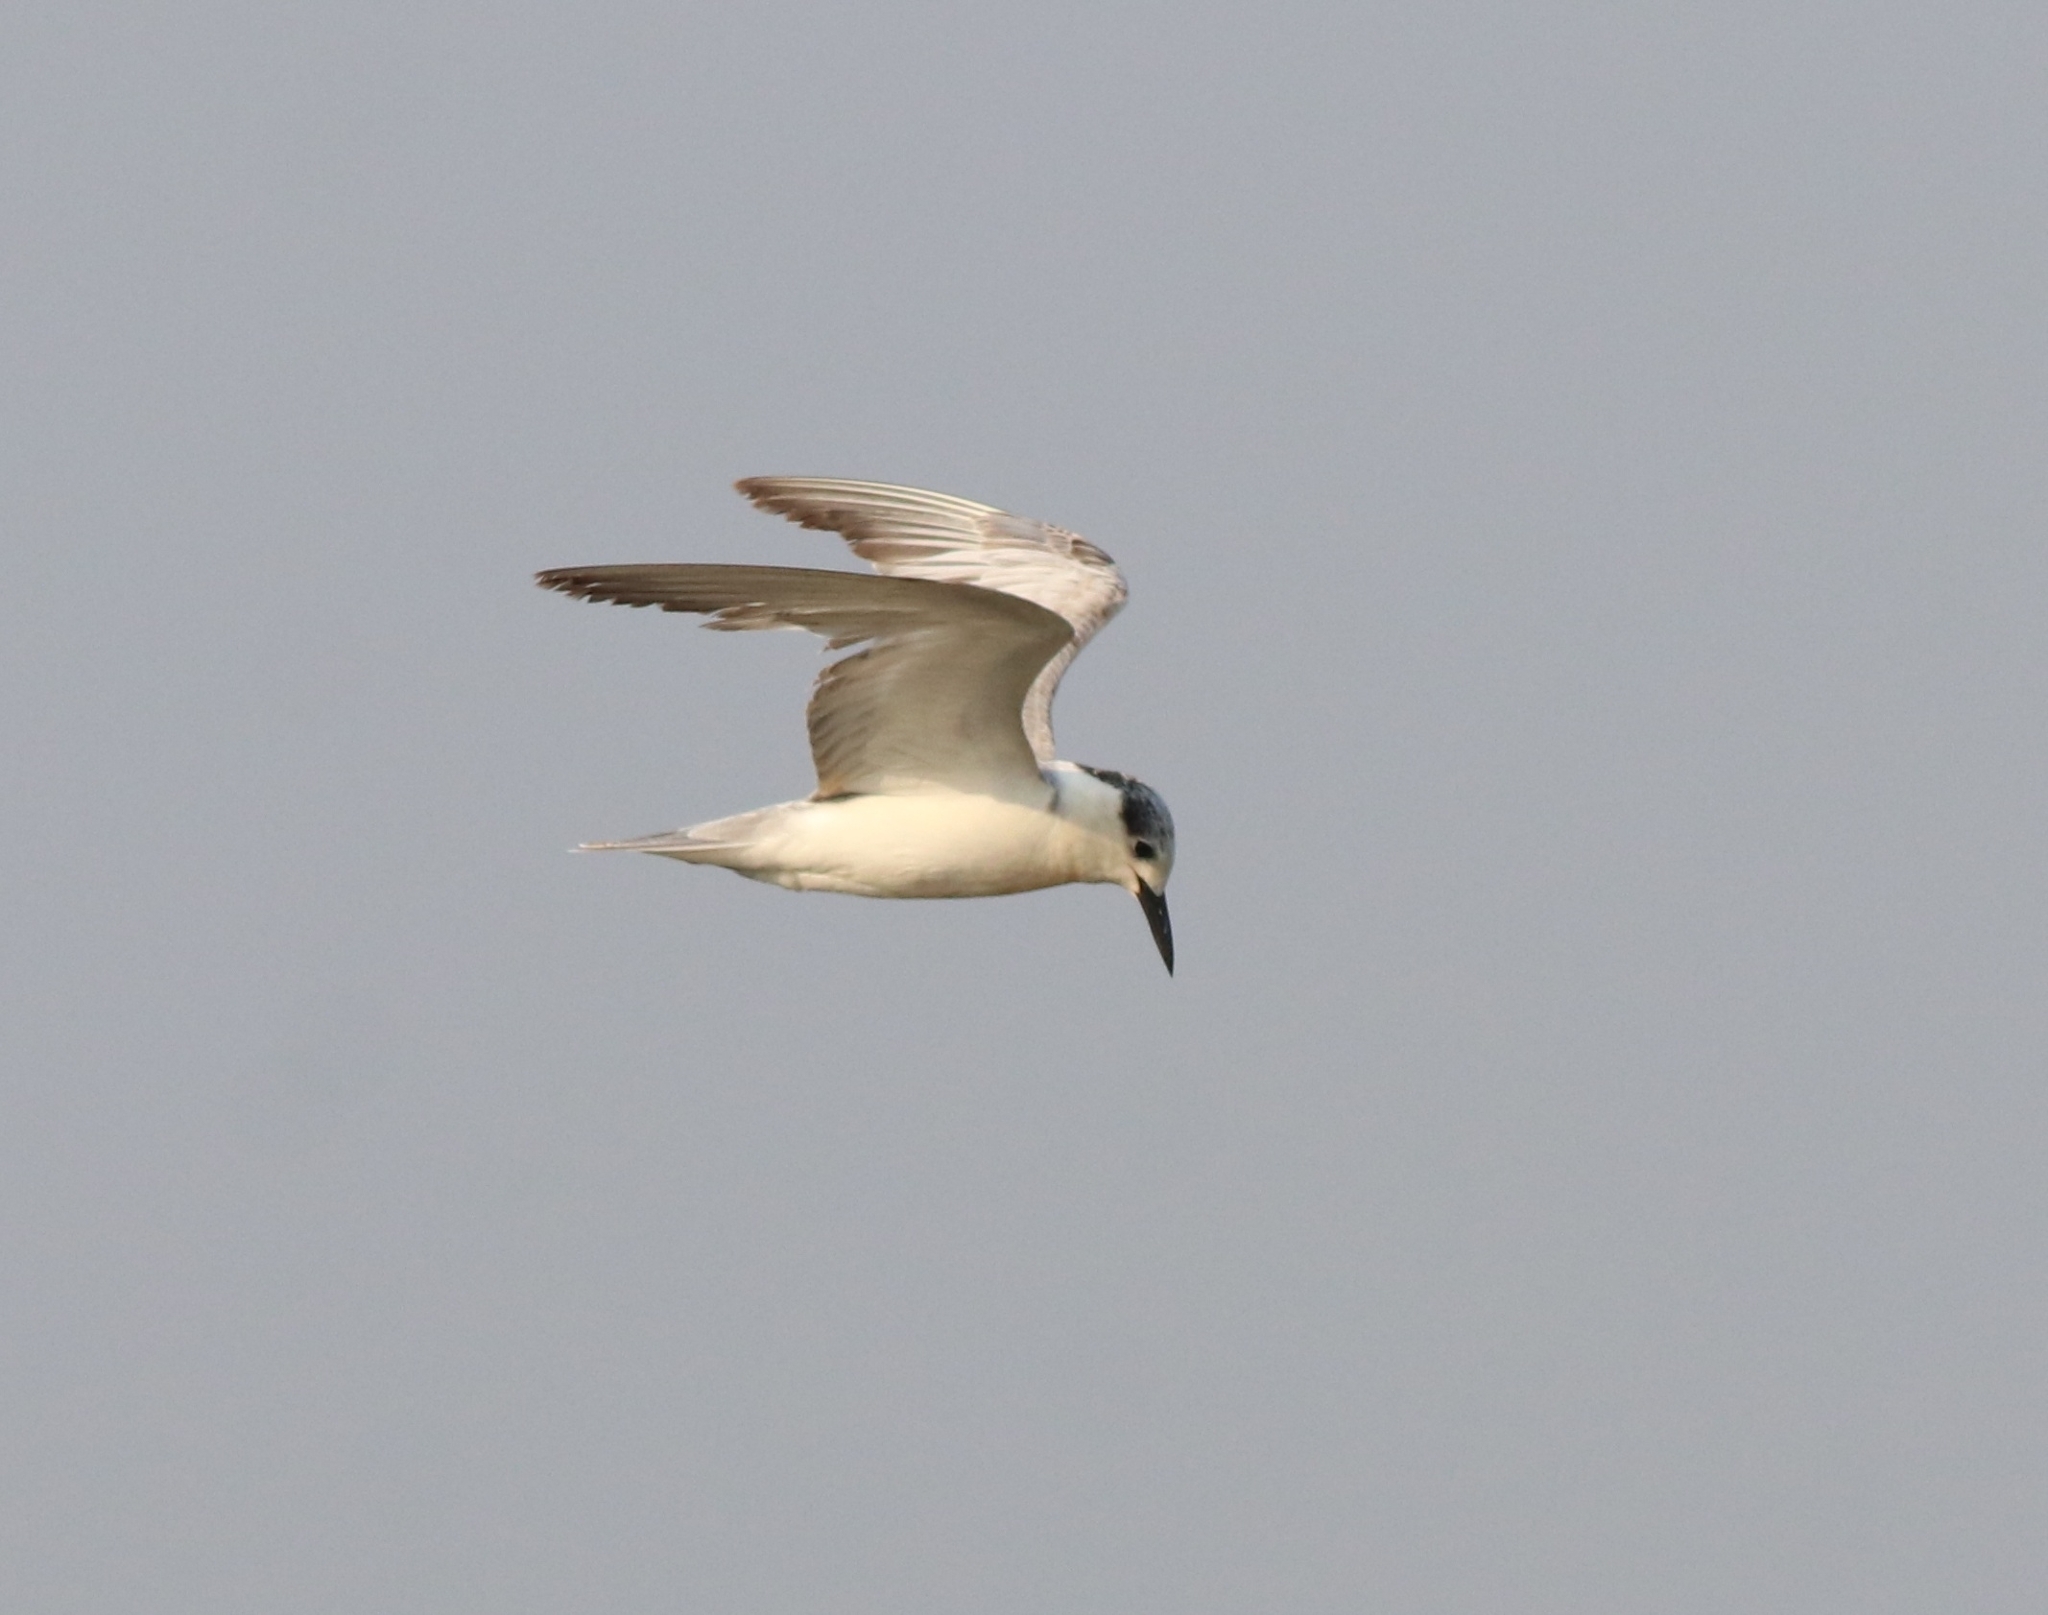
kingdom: Animalia
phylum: Chordata
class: Aves
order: Charadriiformes
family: Laridae
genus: Chlidonias
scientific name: Chlidonias hybrida
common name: Whiskered tern
